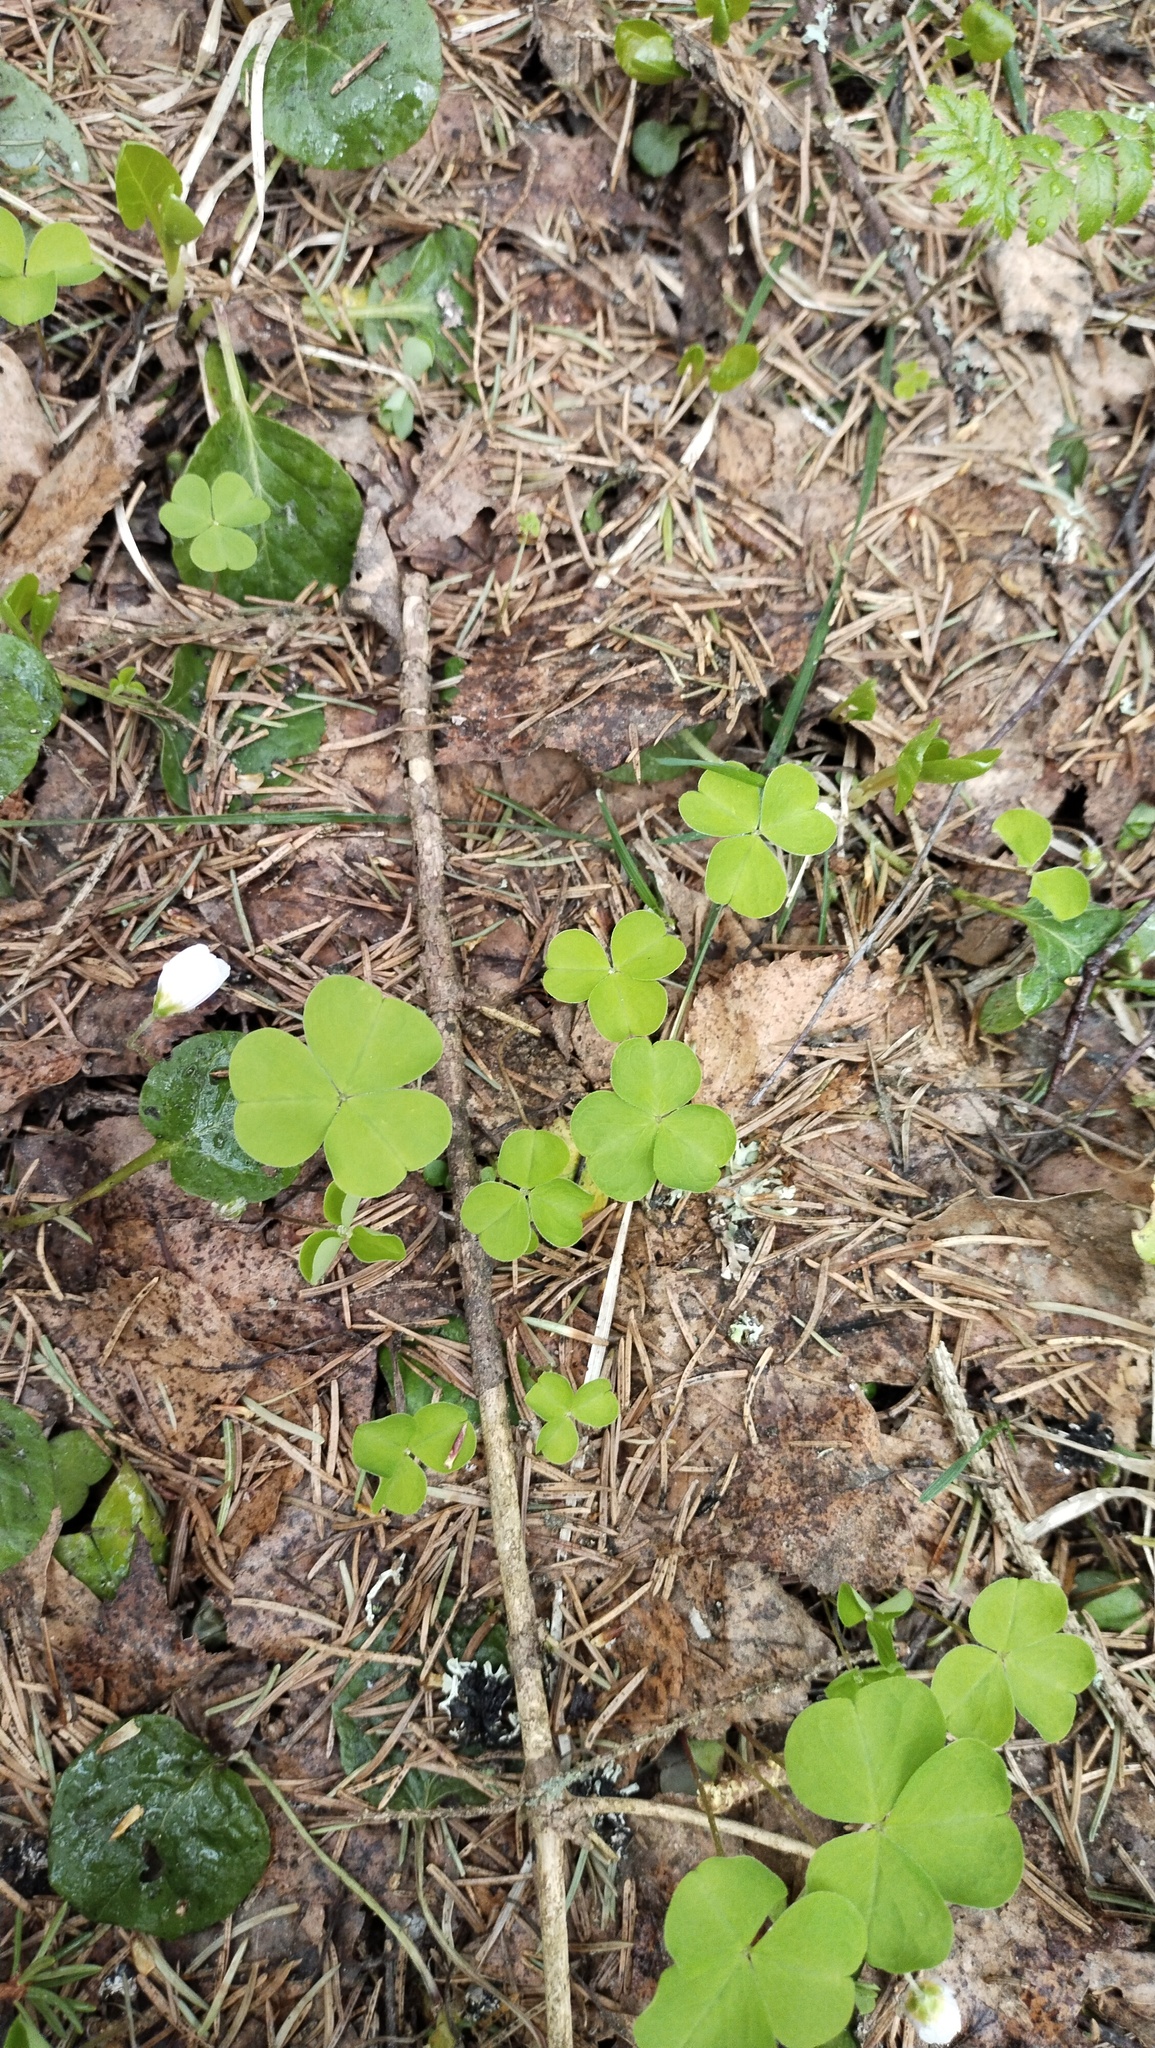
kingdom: Plantae
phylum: Tracheophyta
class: Magnoliopsida
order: Oxalidales
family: Oxalidaceae
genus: Oxalis
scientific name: Oxalis acetosella
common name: Wood-sorrel
